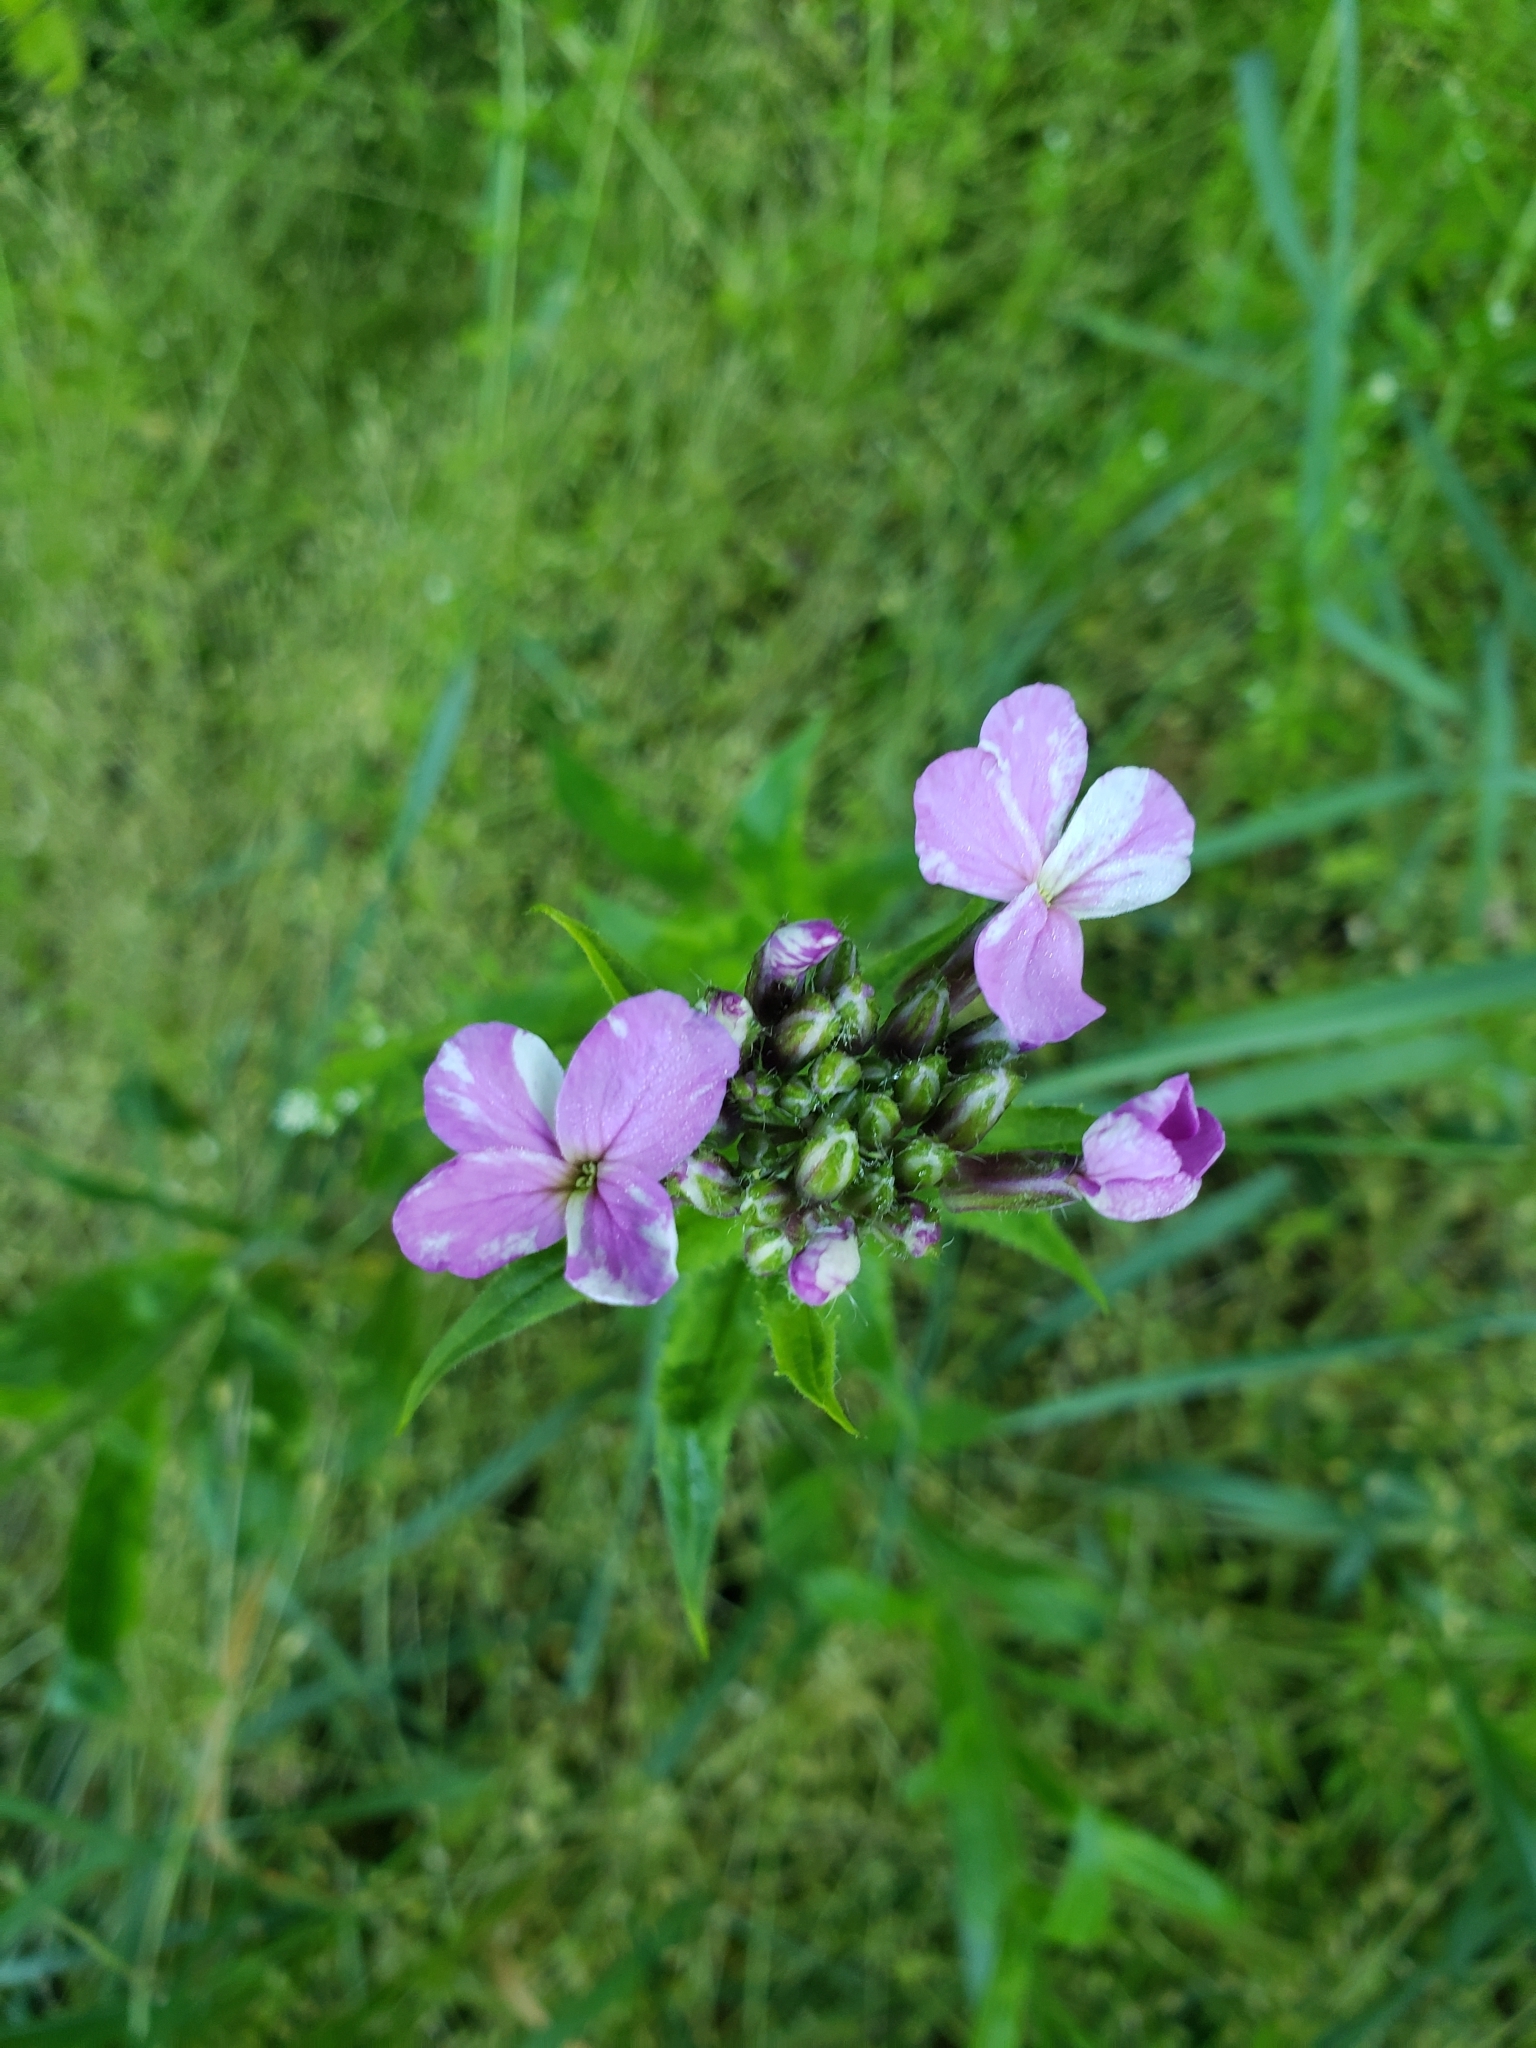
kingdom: Plantae
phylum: Tracheophyta
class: Magnoliopsida
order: Brassicales
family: Brassicaceae
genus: Hesperis
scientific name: Hesperis matronalis
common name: Dame's-violet
